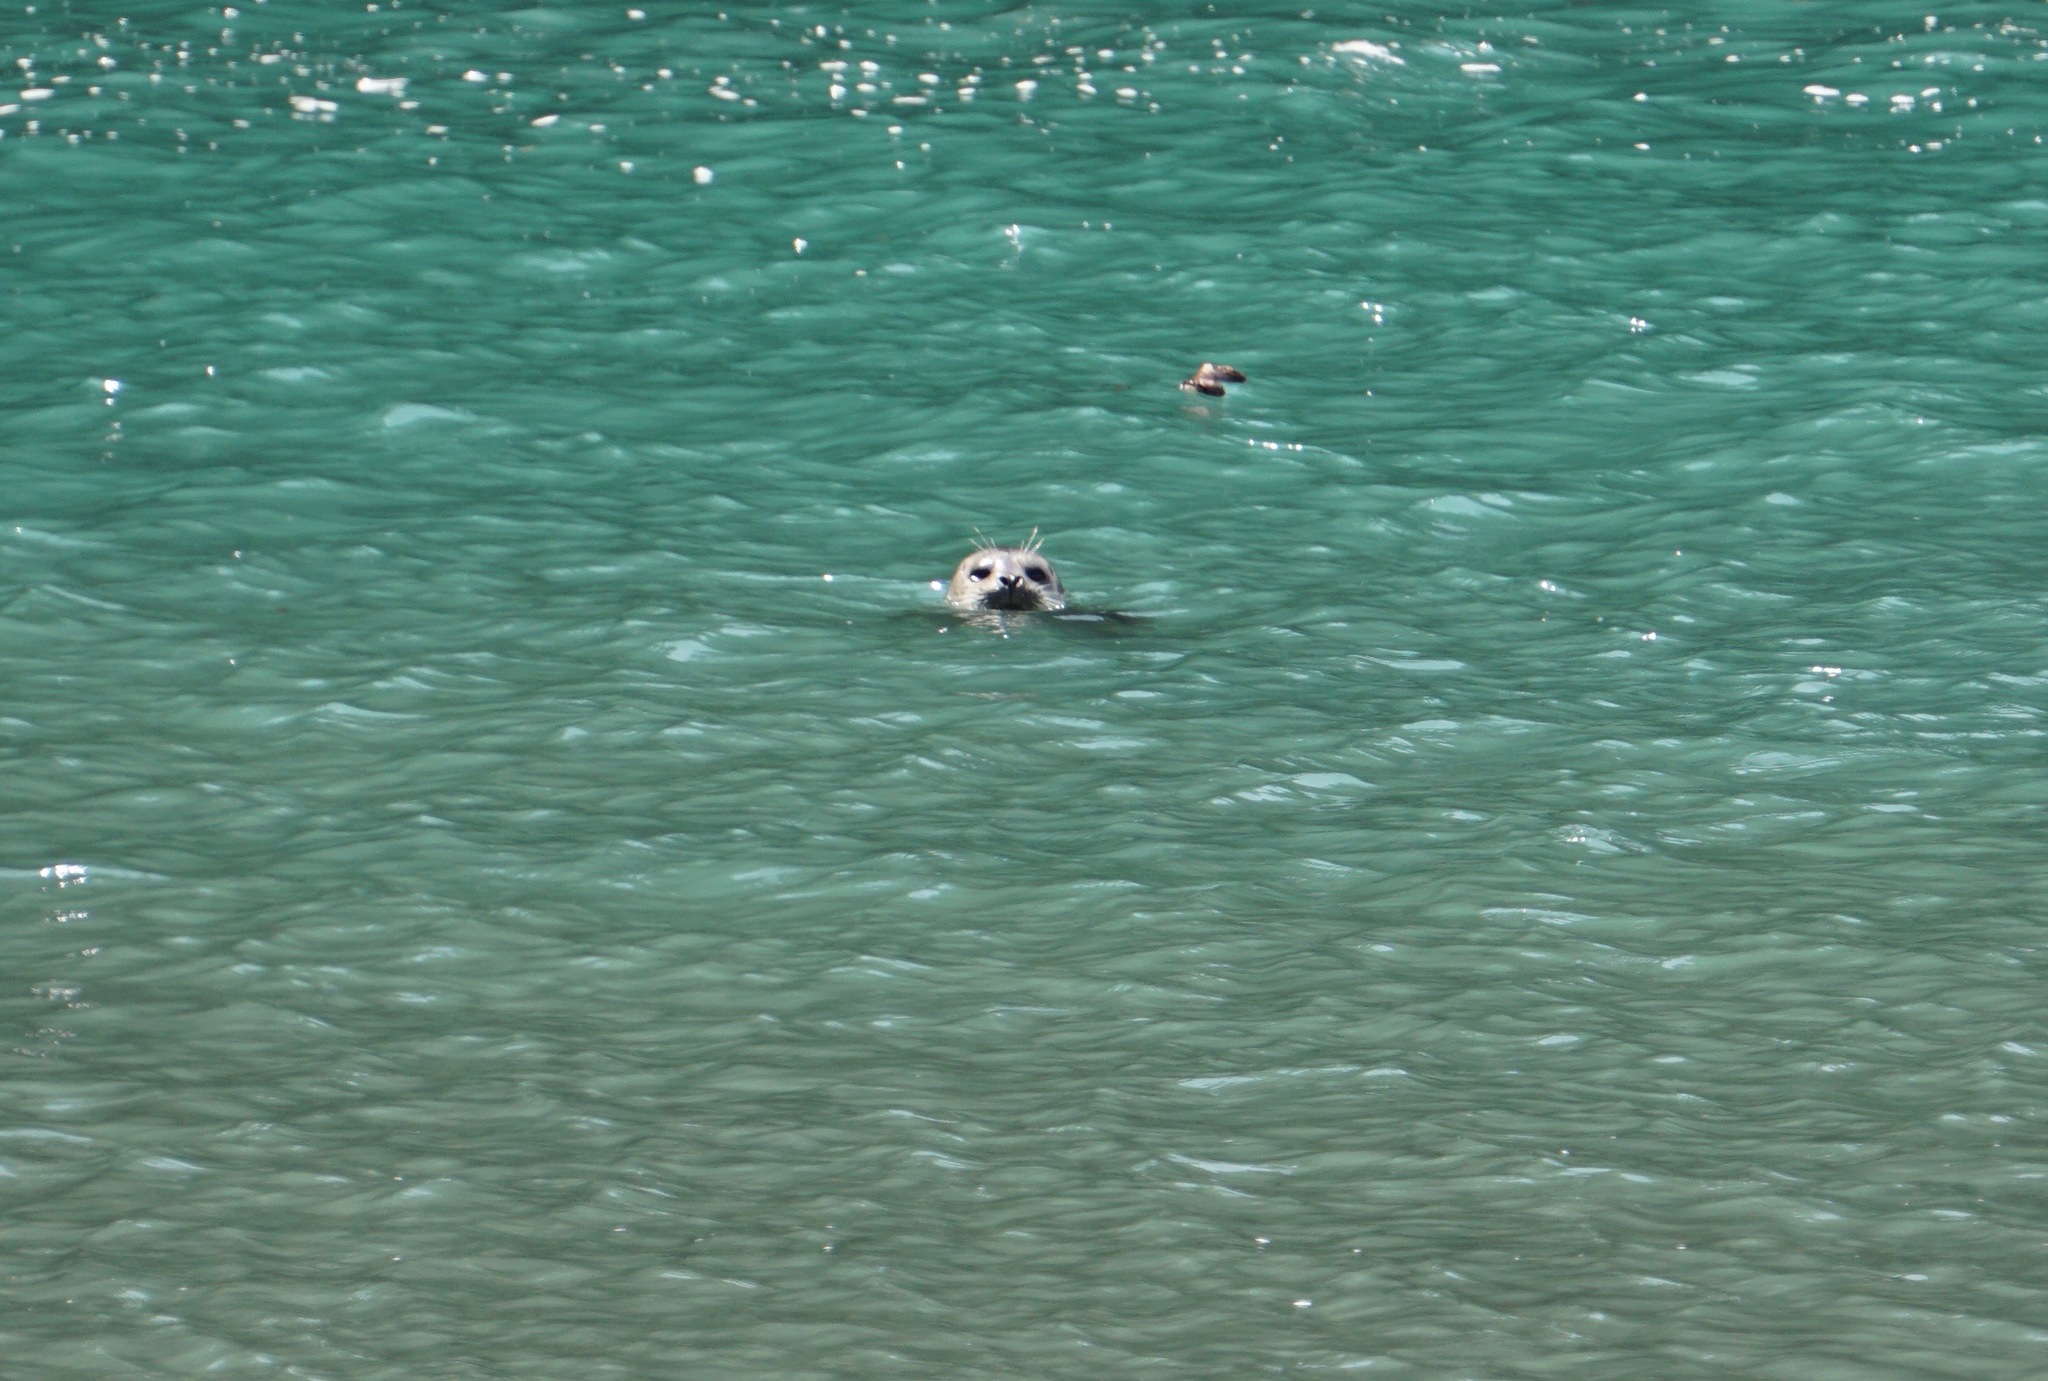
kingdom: Animalia
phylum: Chordata
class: Mammalia
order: Carnivora
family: Phocidae
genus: Phoca
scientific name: Phoca vitulina
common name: Harbor seal
